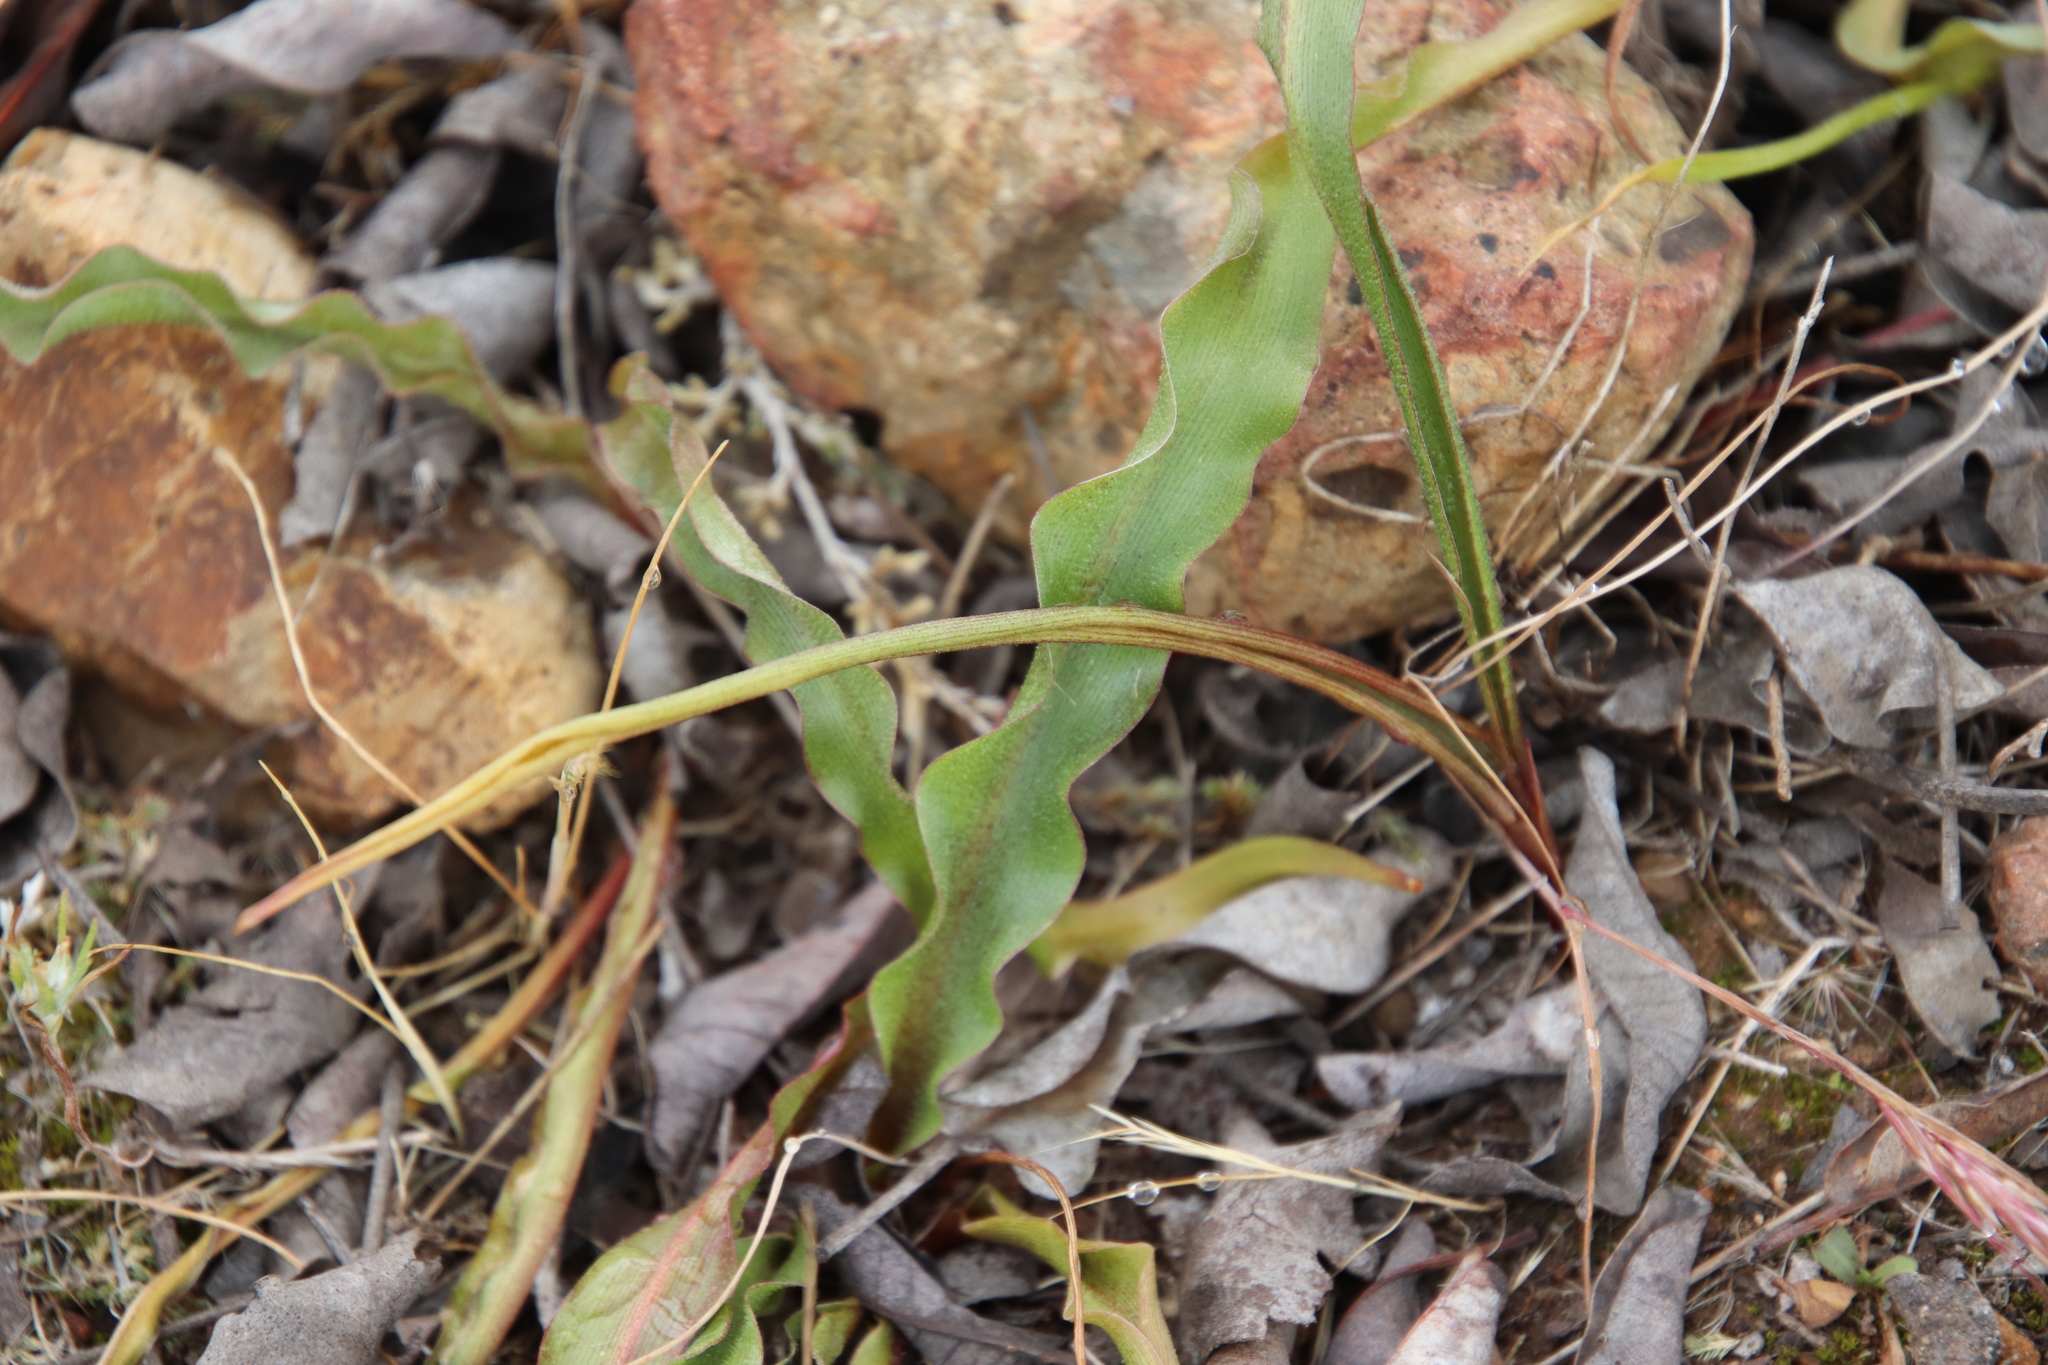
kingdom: Plantae
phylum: Tracheophyta
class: Liliopsida
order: Asparagales
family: Asparagaceae
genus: Hooveria
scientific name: Hooveria parviflora
